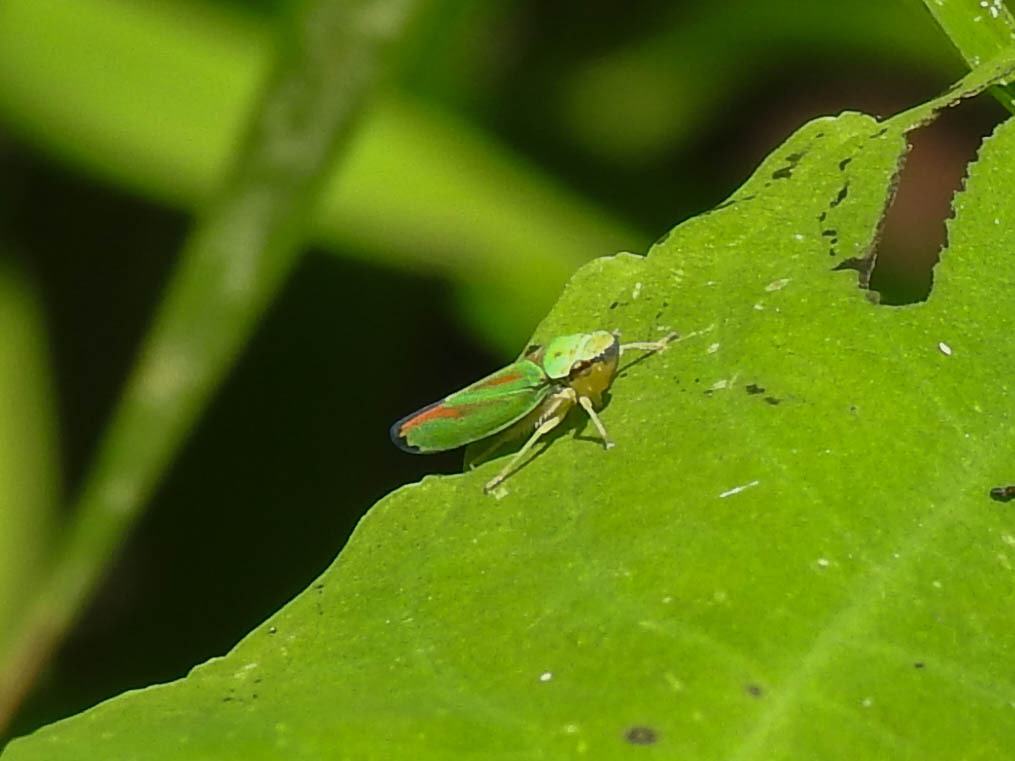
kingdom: Animalia
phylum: Arthropoda
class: Insecta
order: Hemiptera
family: Cicadellidae
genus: Graphocephala
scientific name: Graphocephala fennahi
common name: Rhododendron leafhopper
